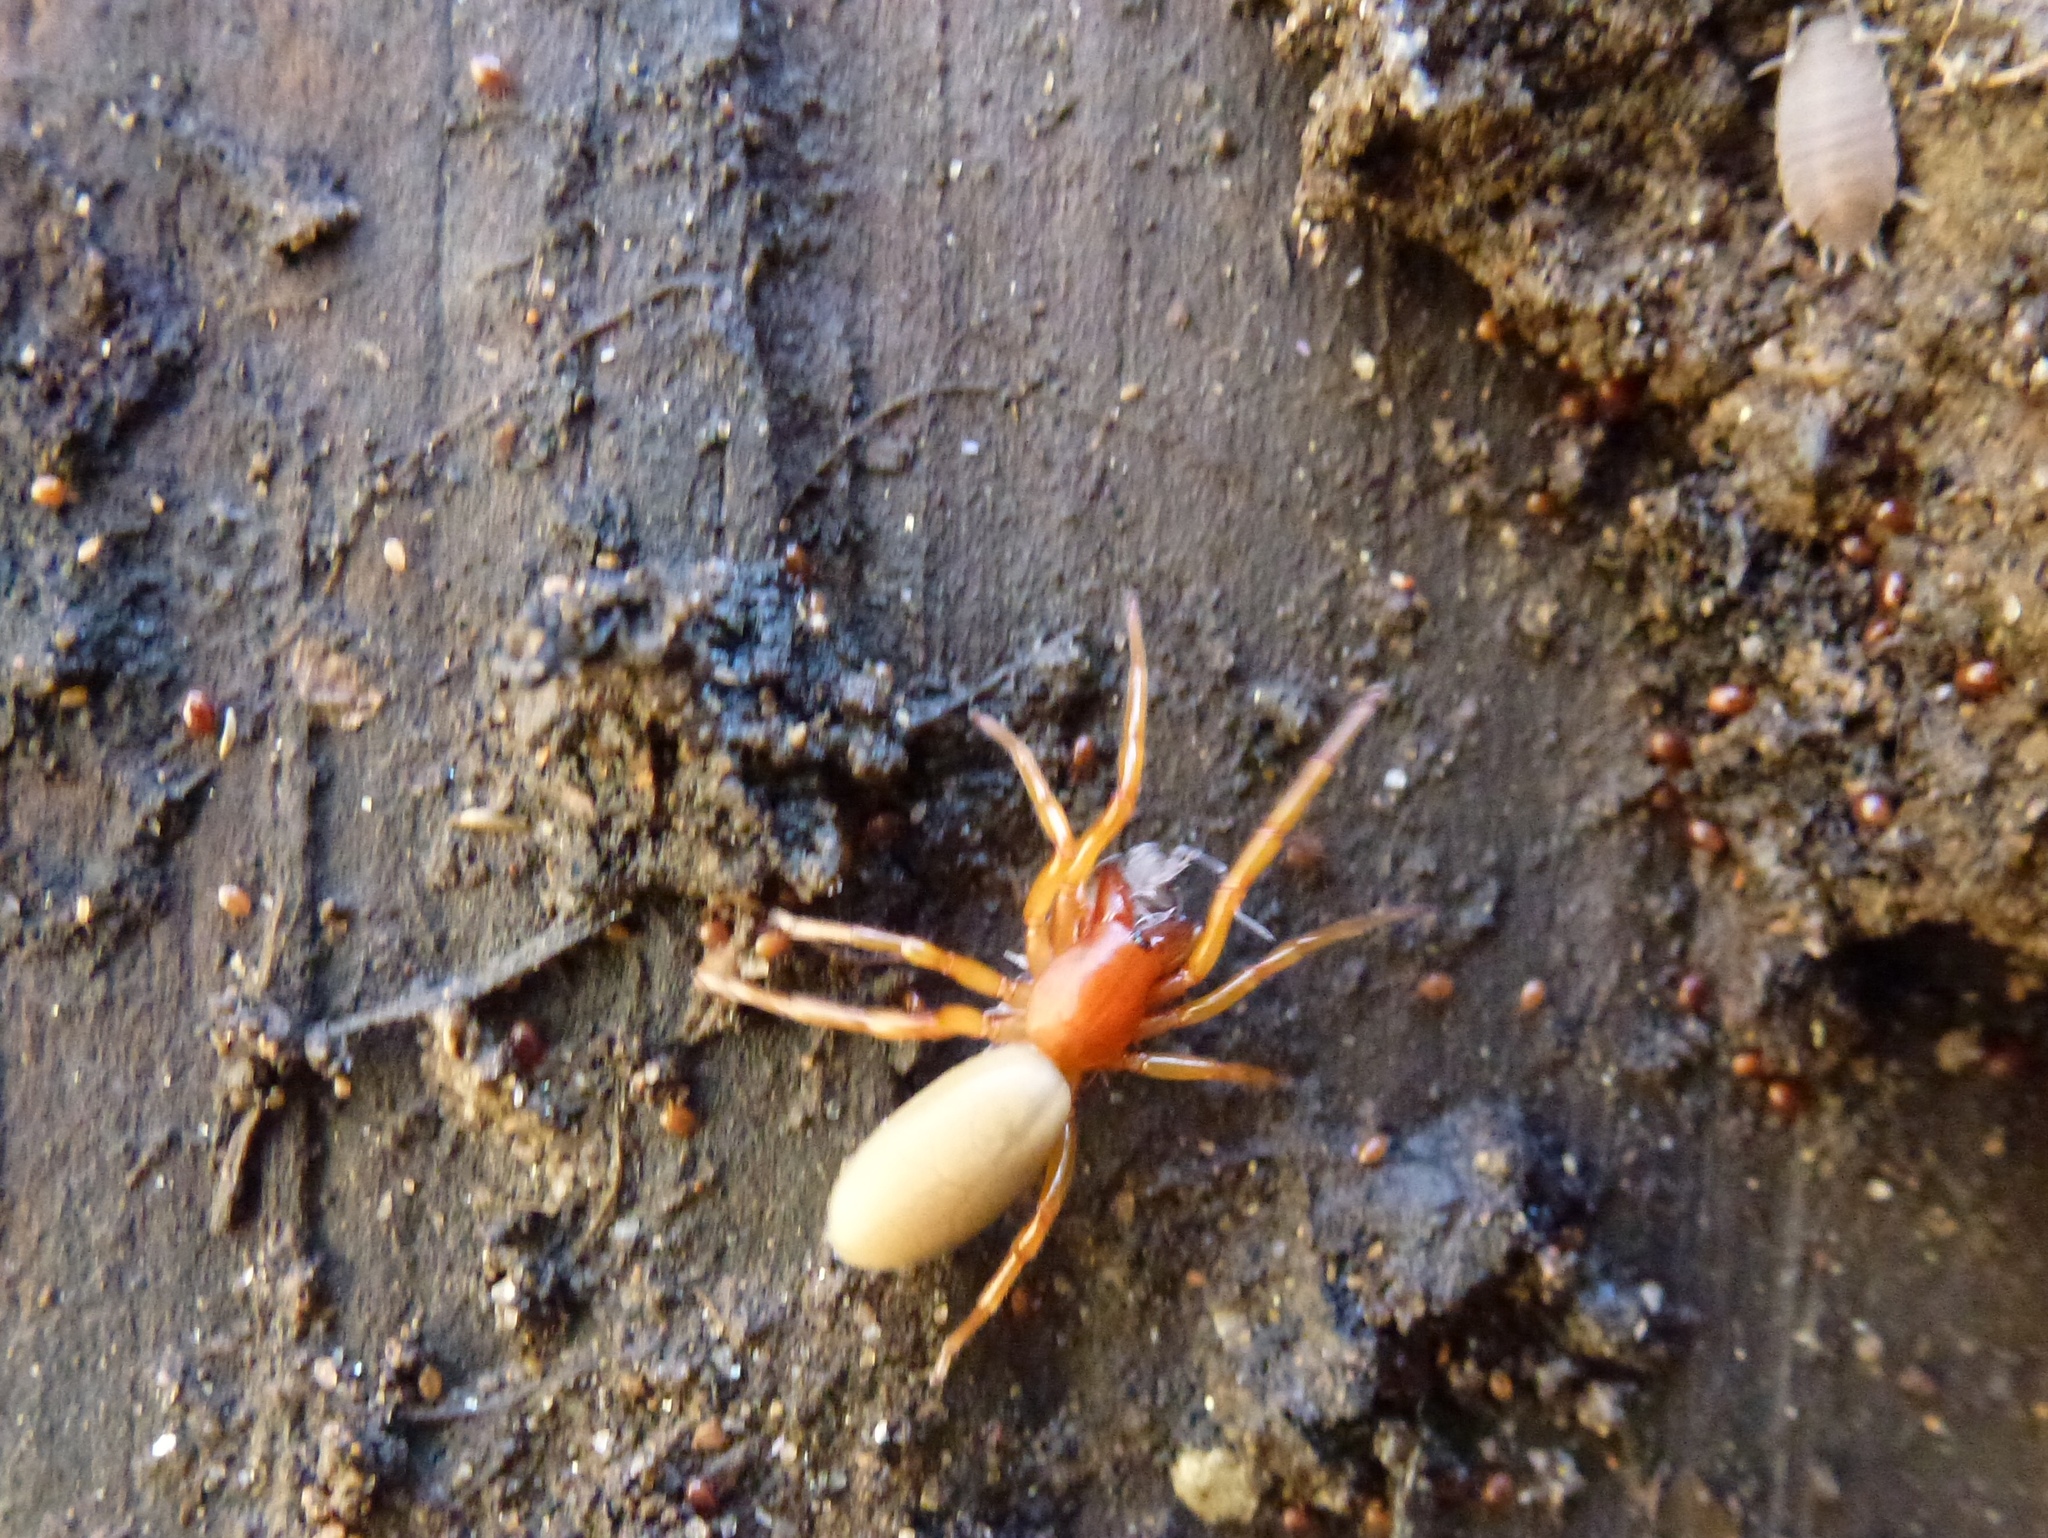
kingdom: Animalia
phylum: Arthropoda
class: Arachnida
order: Araneae
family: Dysderidae
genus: Dysdera
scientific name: Dysdera crocata
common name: Woodlouse spider
